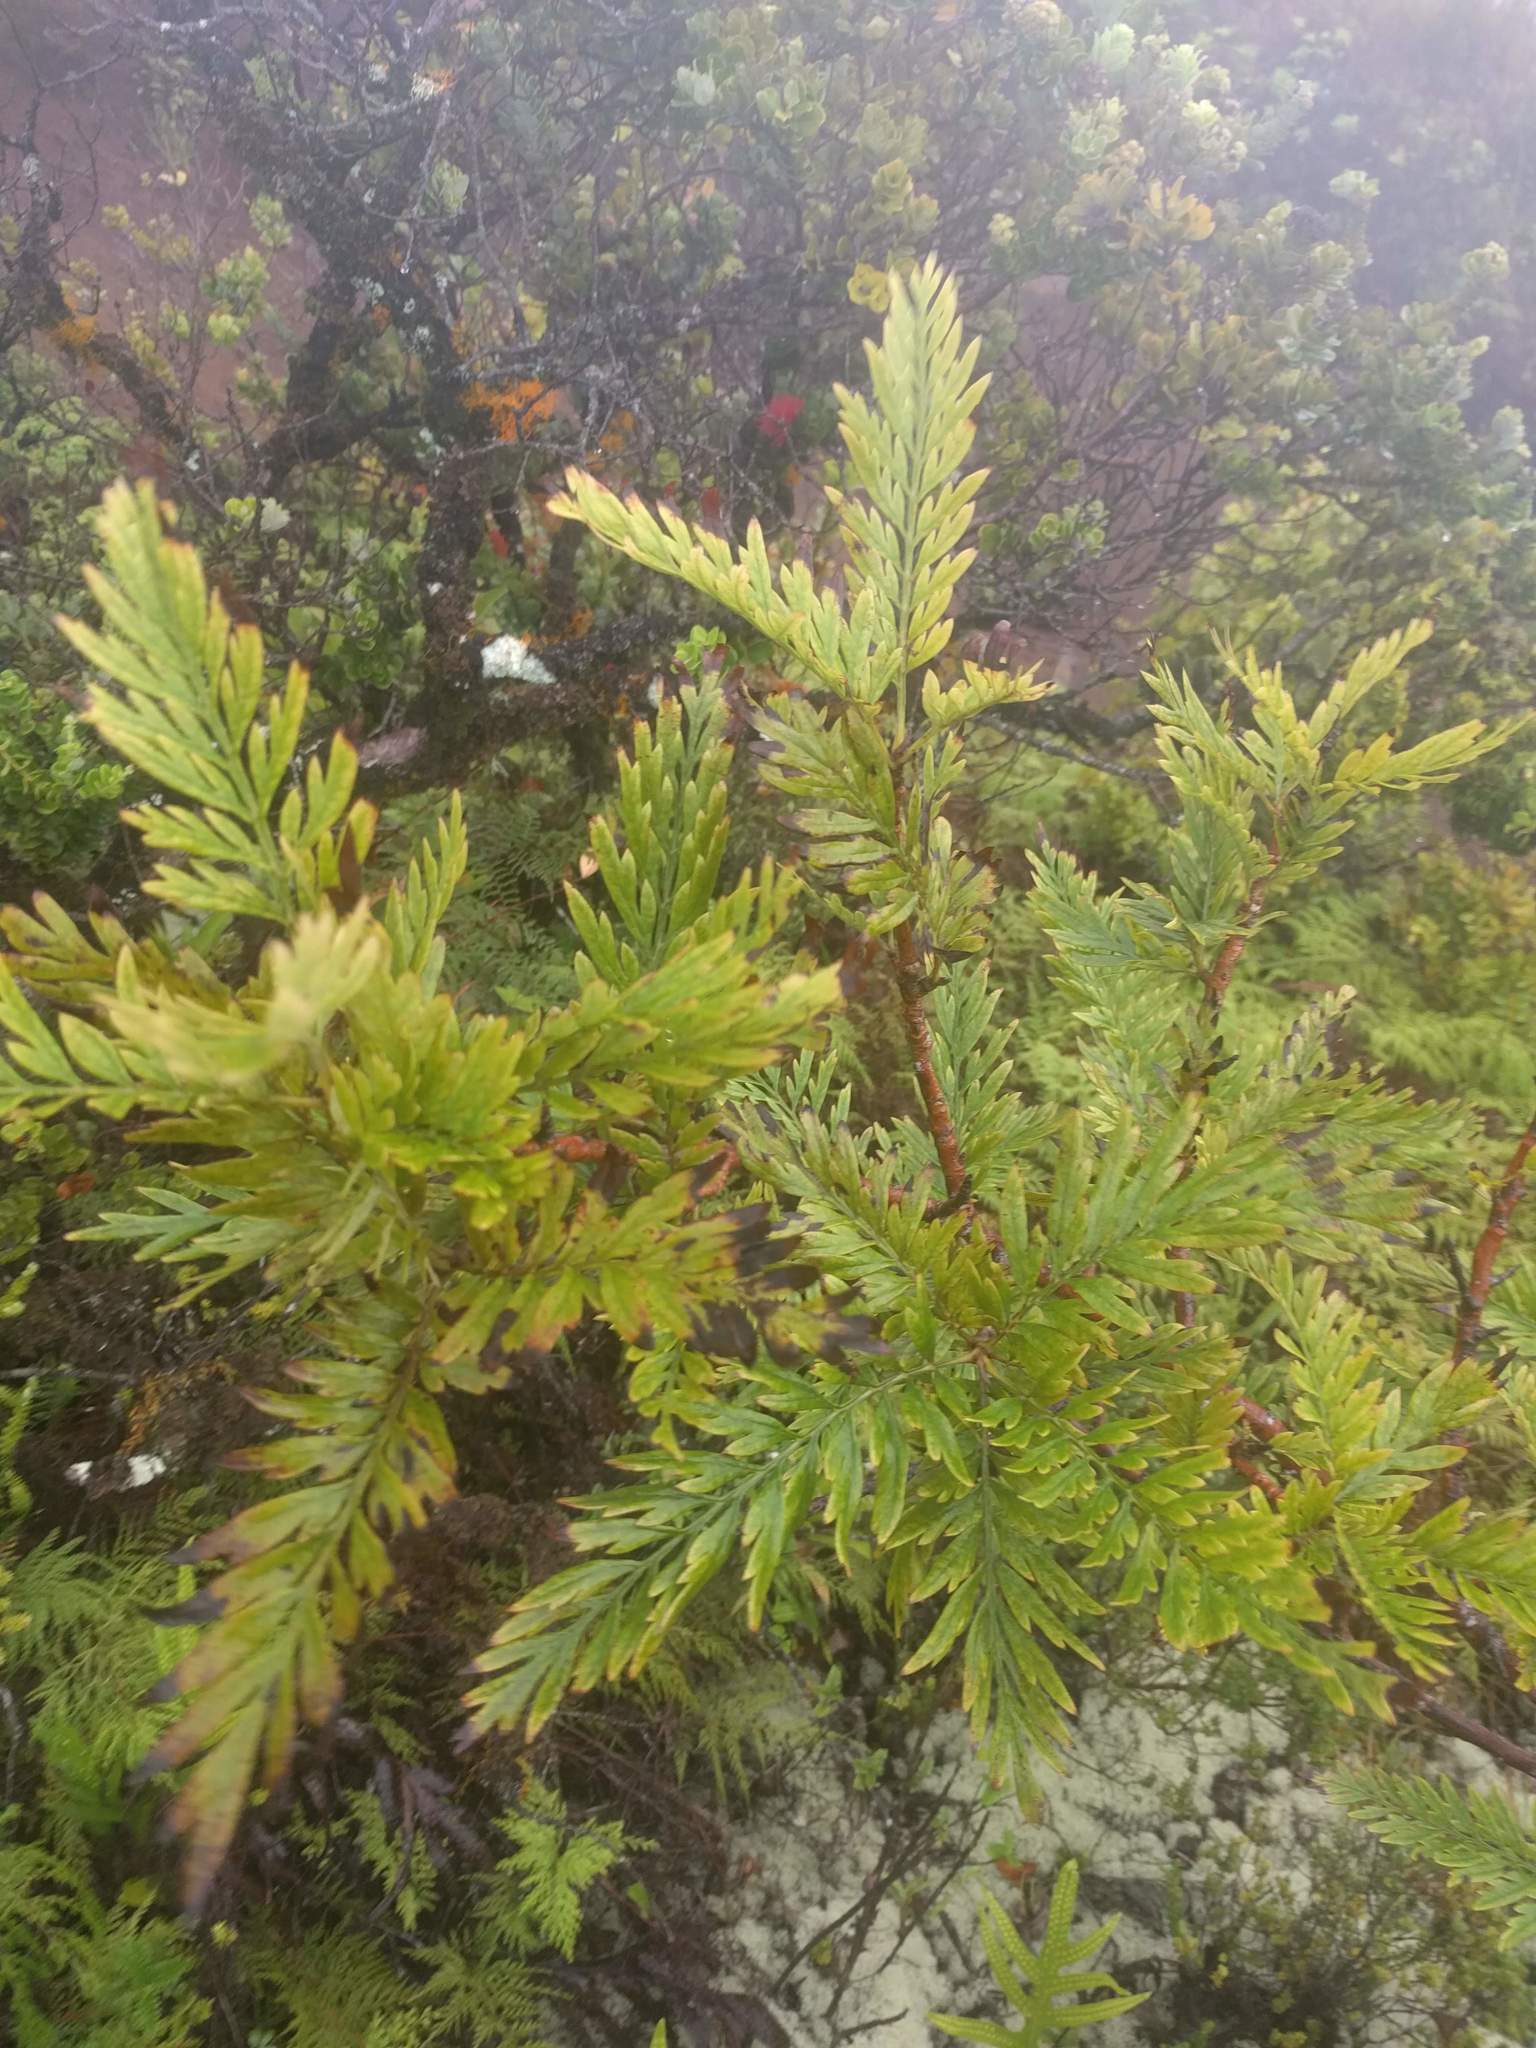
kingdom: Plantae
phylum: Tracheophyta
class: Magnoliopsida
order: Proteales
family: Proteaceae
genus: Grevillea
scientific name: Grevillea robusta
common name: Silkoak
